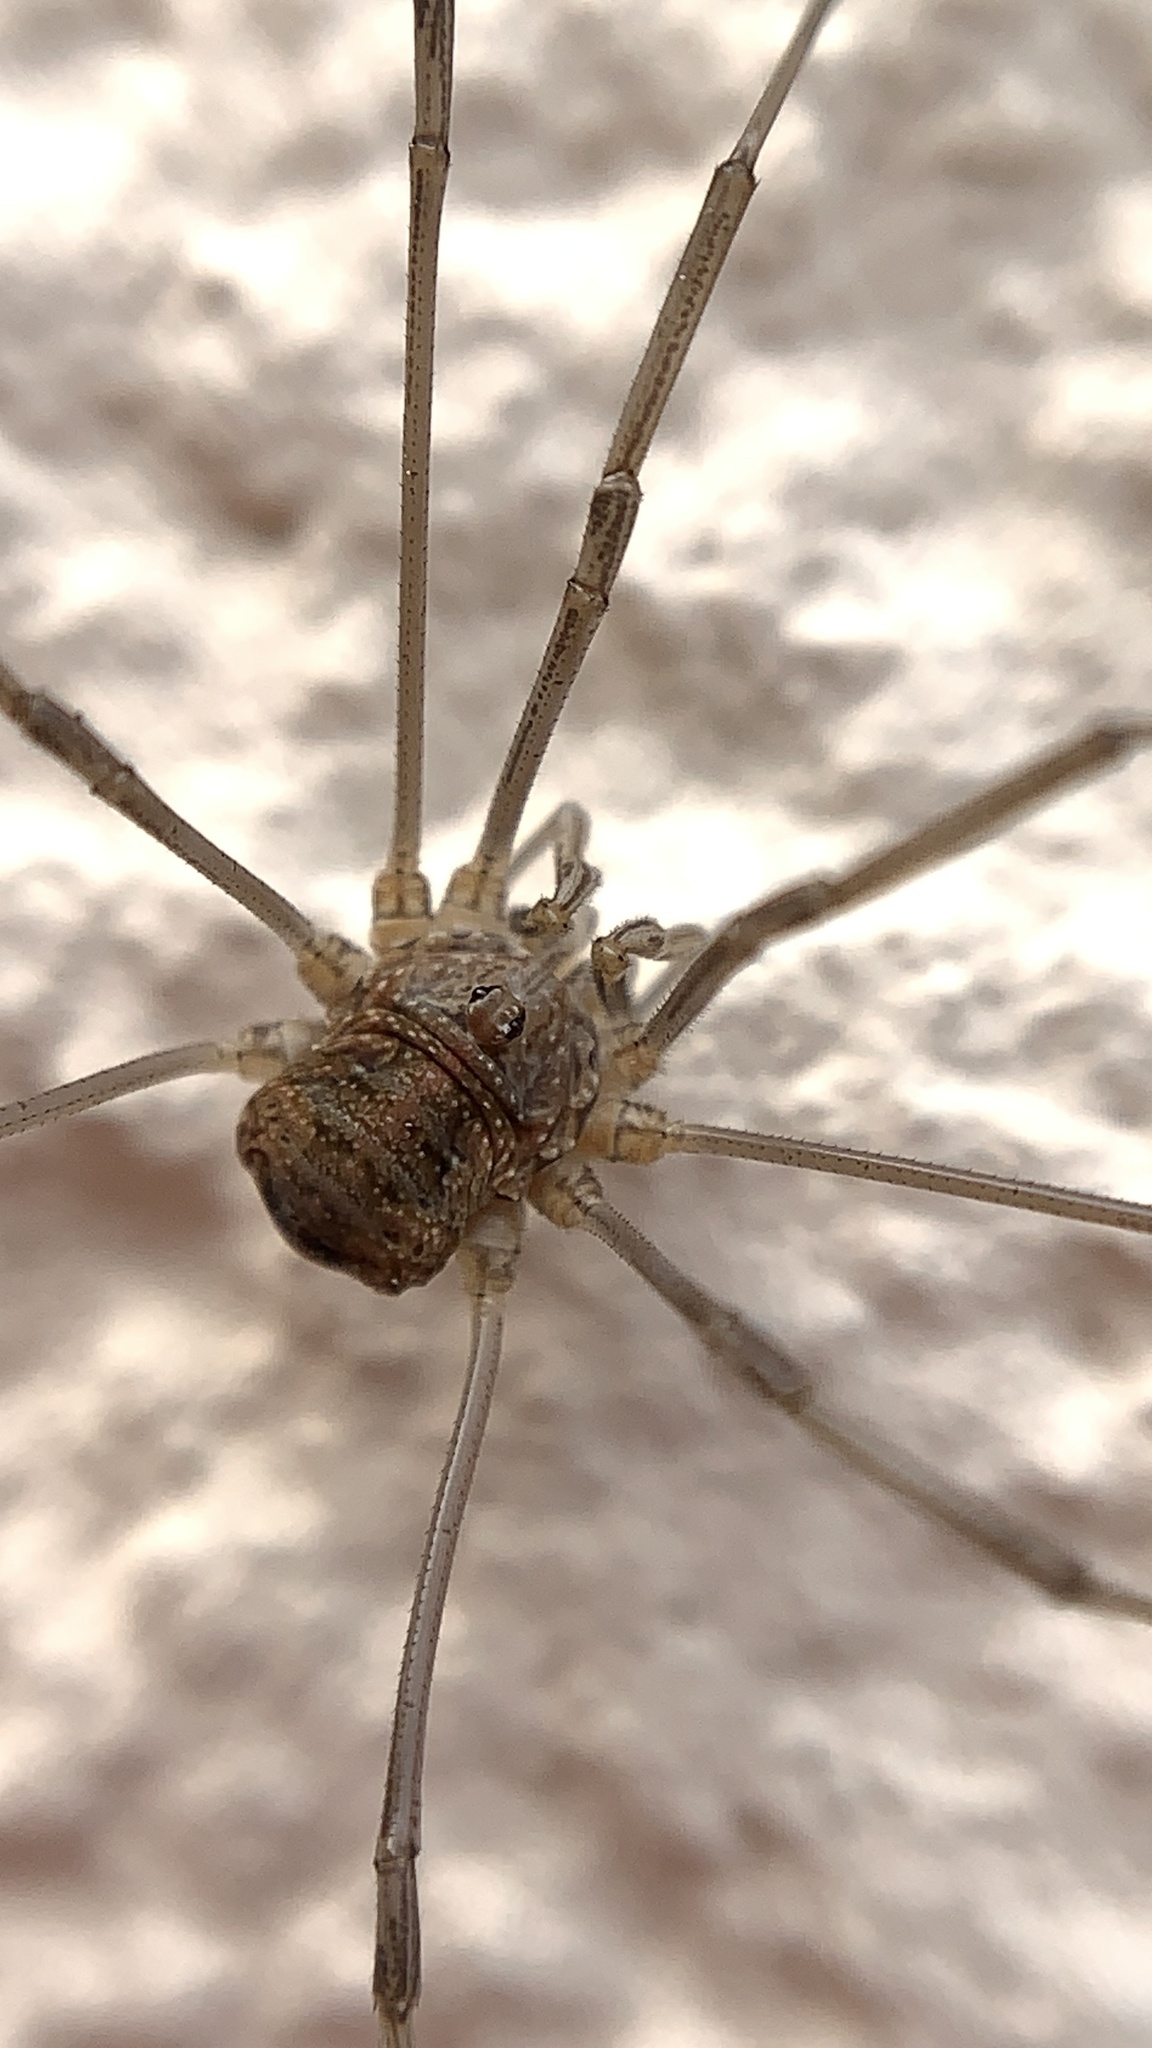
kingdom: Animalia
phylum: Arthropoda
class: Arachnida
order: Opiliones
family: Phalangiidae
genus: Phalangium
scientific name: Phalangium opilio
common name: Daddy longleg
